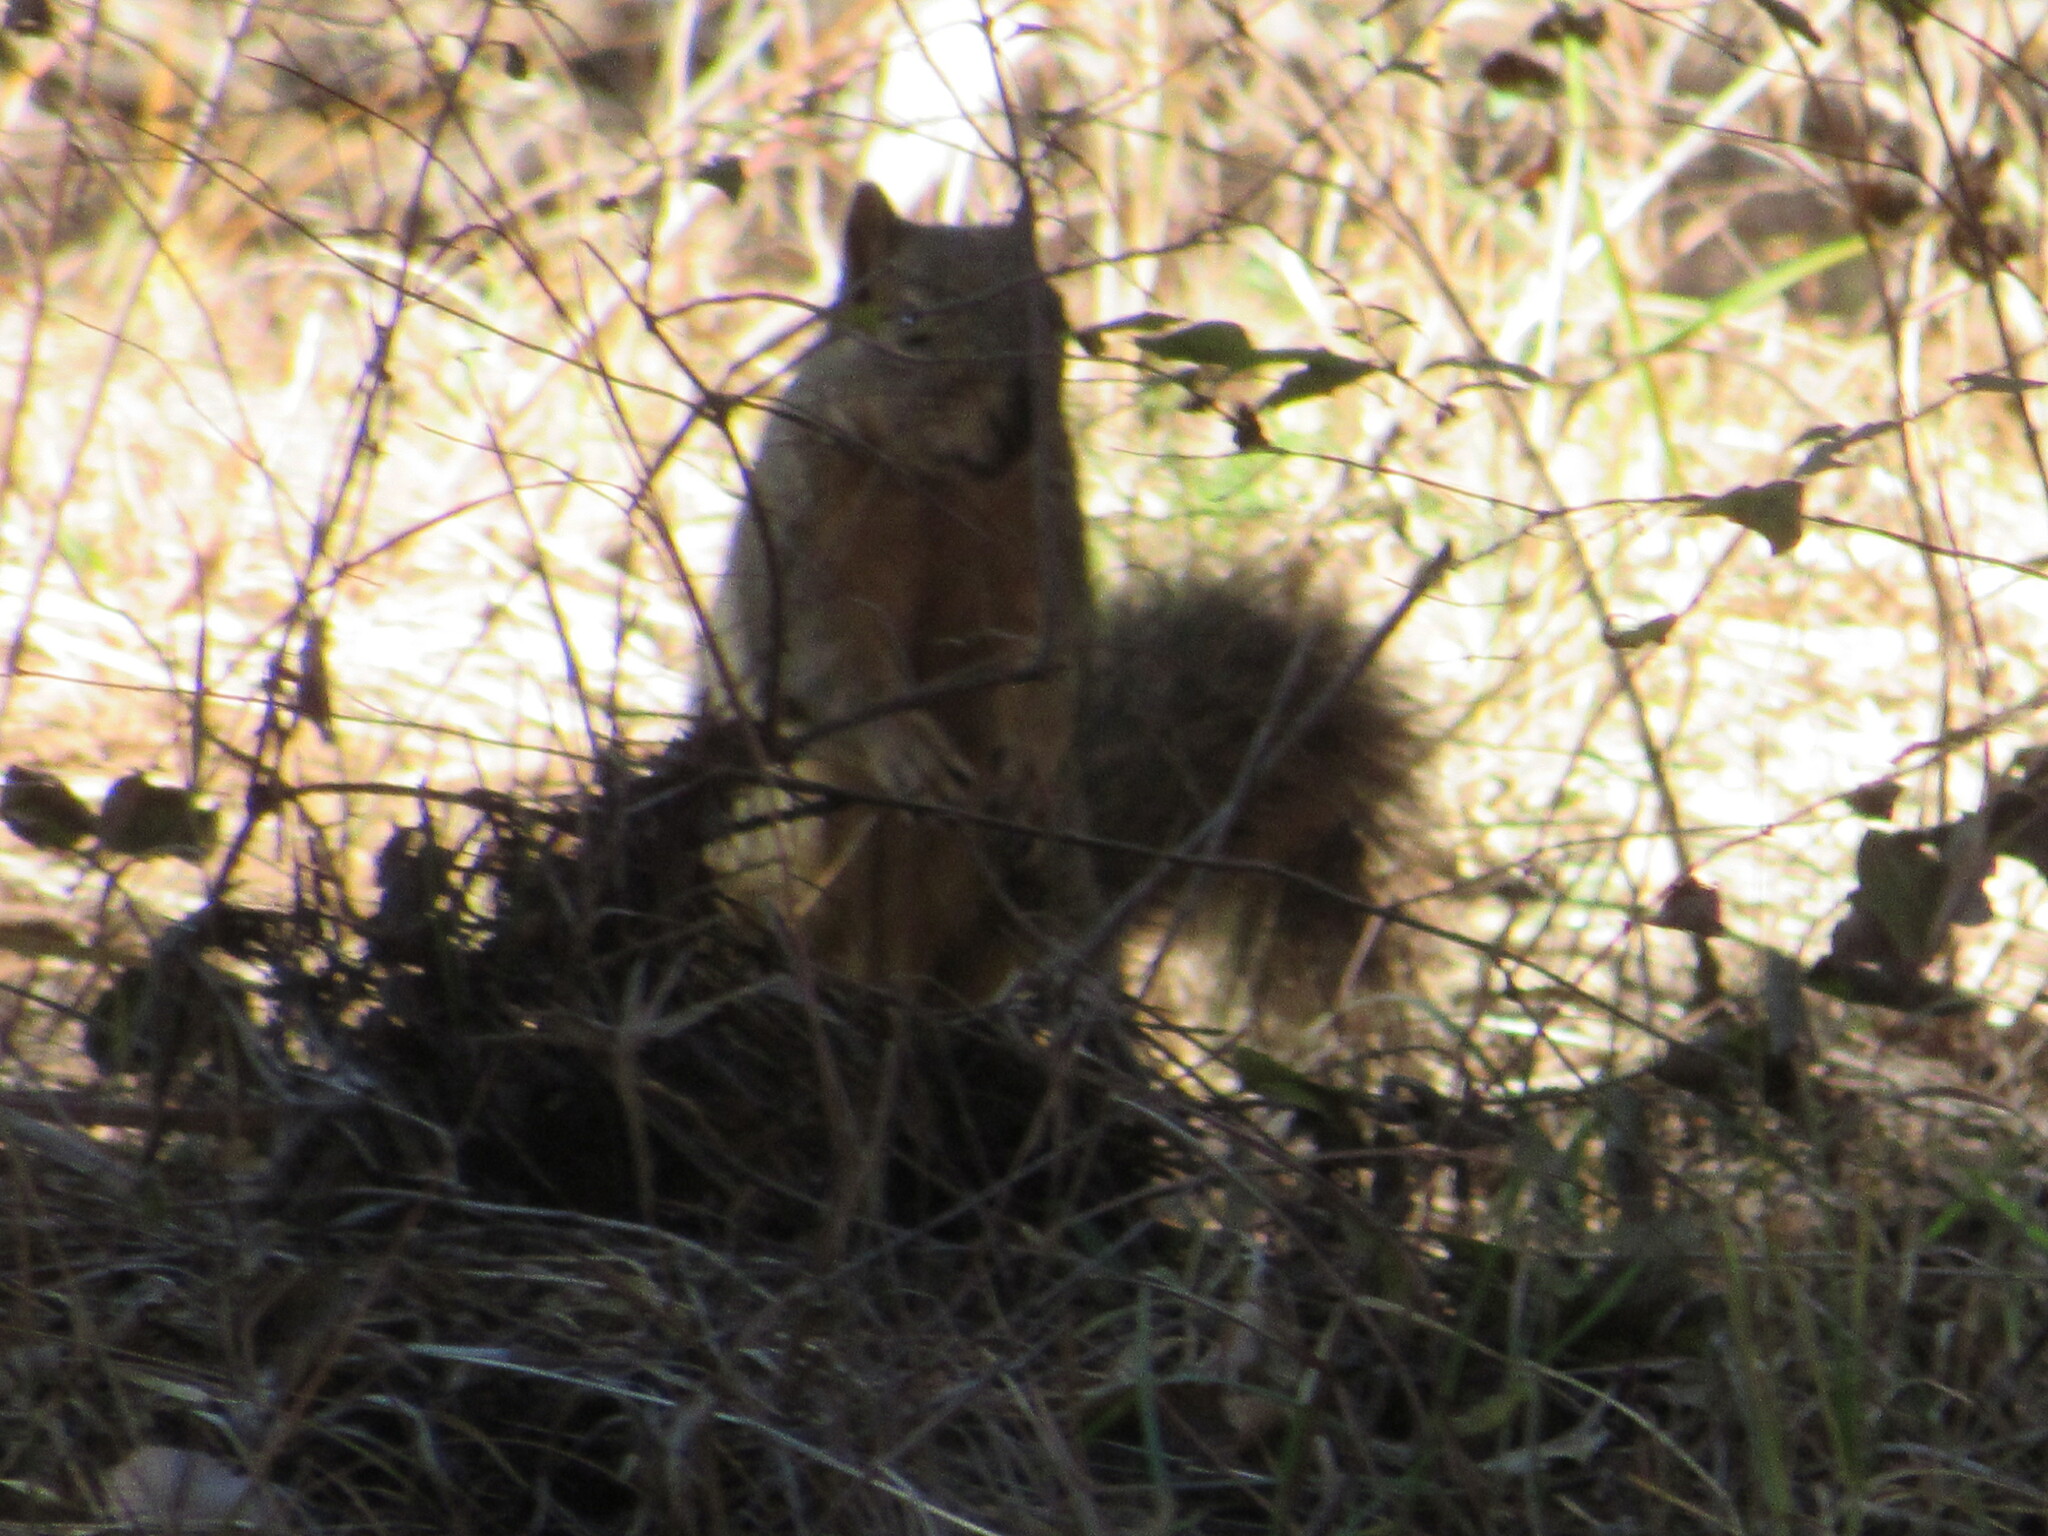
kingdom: Animalia
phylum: Chordata
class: Mammalia
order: Rodentia
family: Sciuridae
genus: Sciurus
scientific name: Sciurus niger
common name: Fox squirrel
